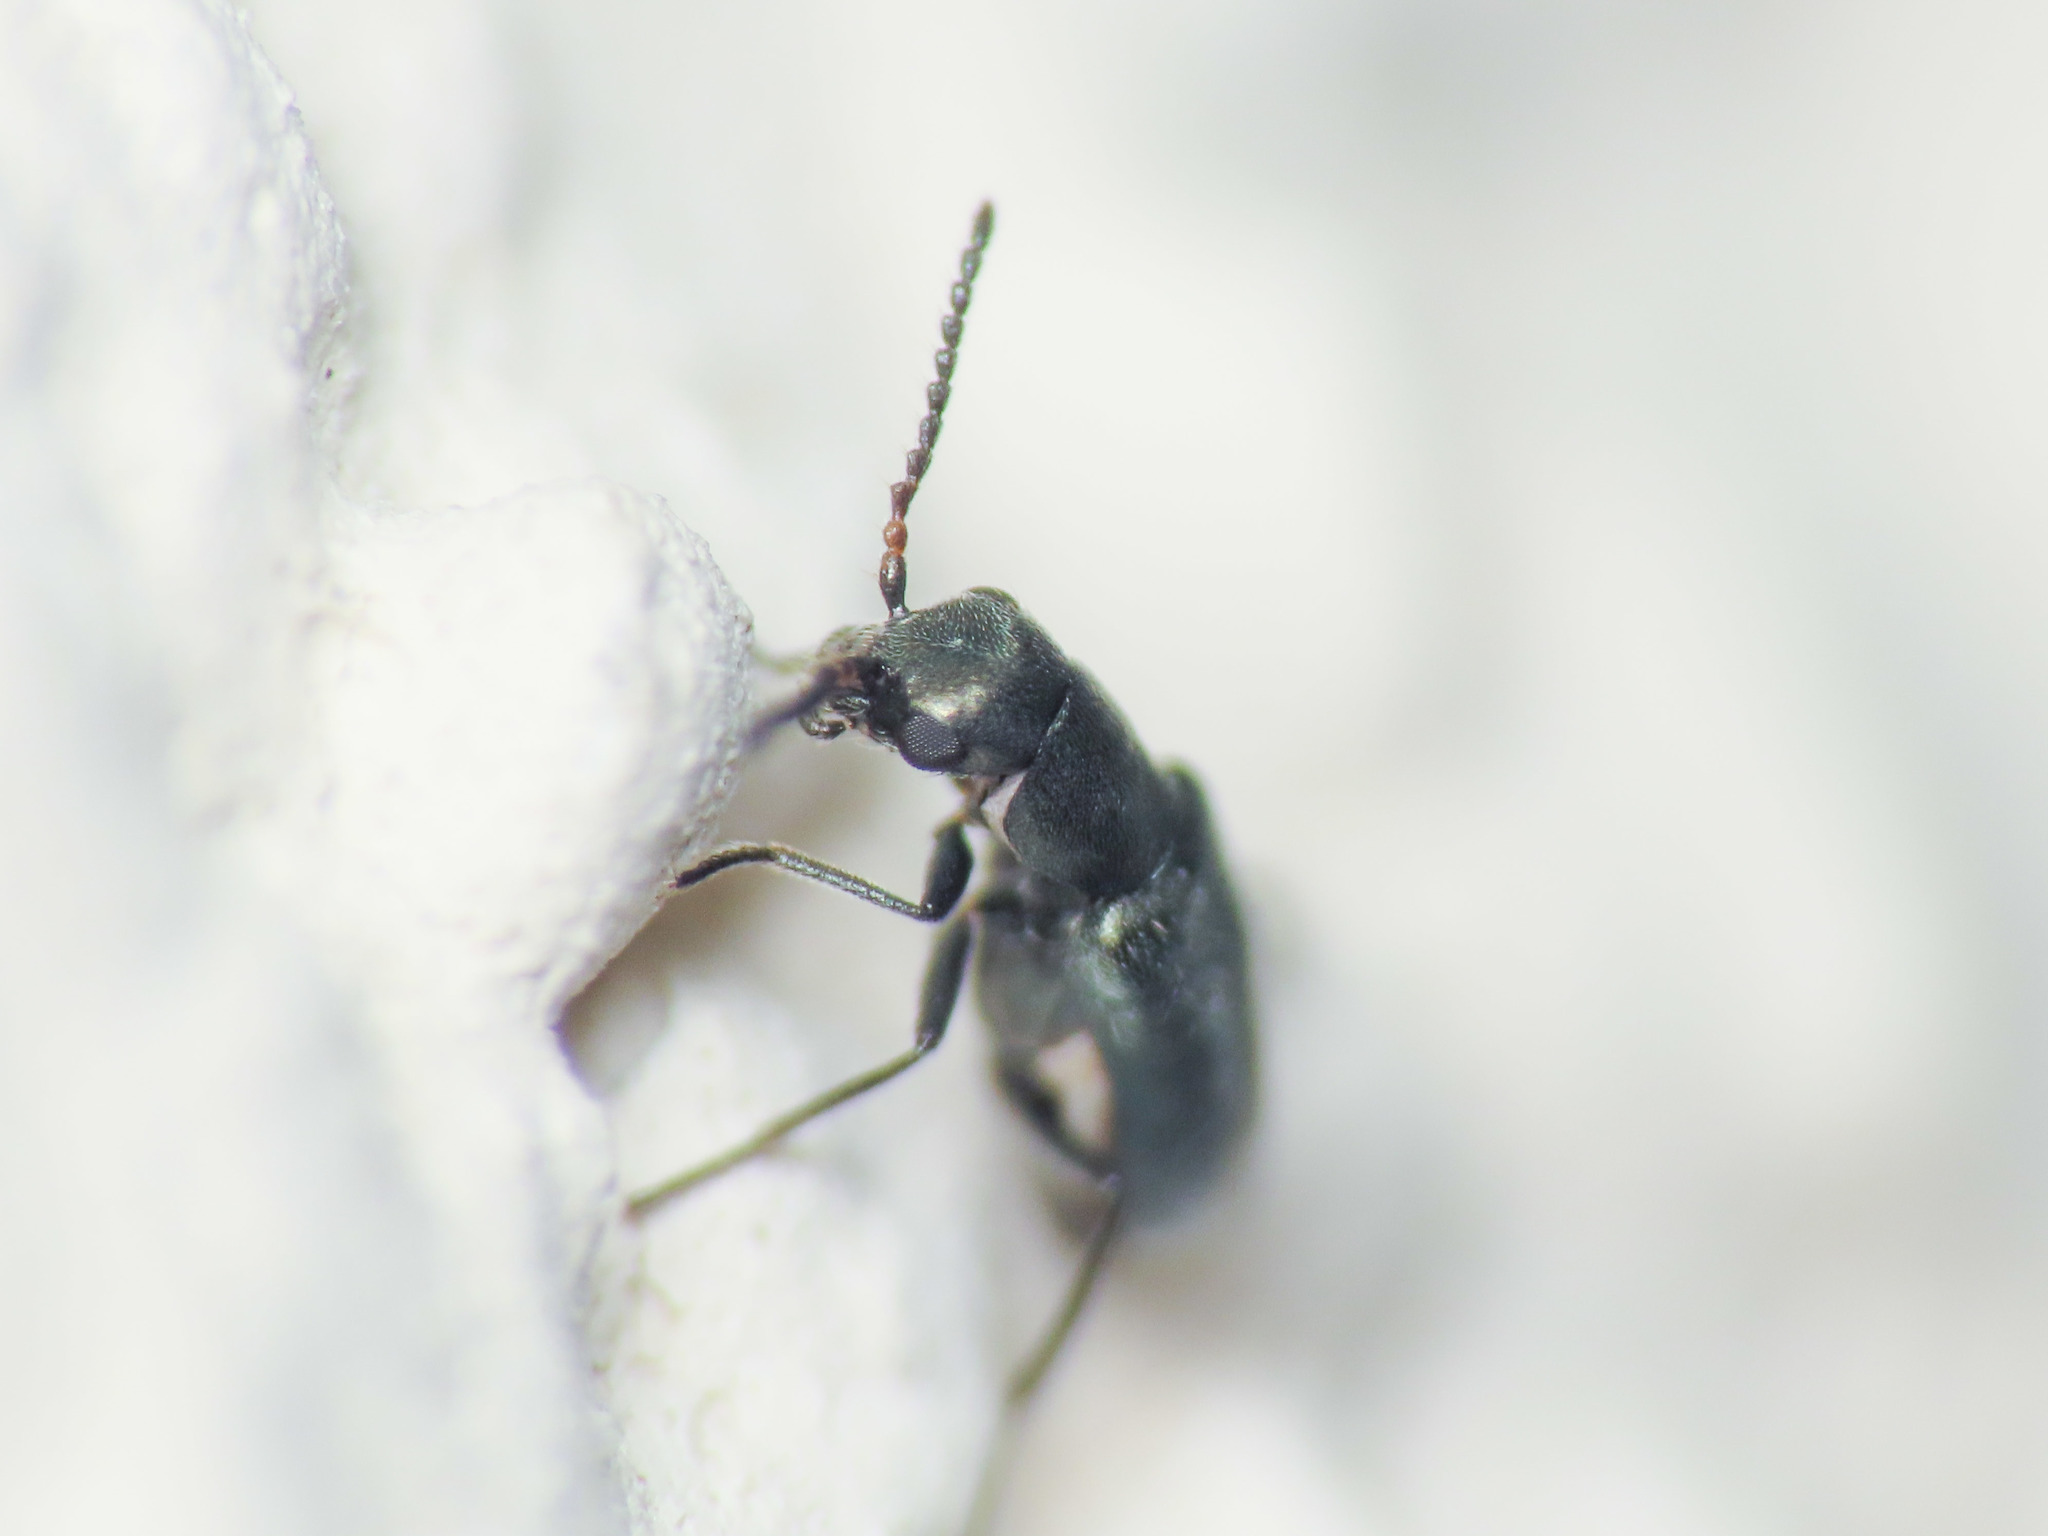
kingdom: Animalia
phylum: Arthropoda
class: Insecta
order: Coleoptera
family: Malachiidae
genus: Charopus
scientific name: Charopus docilis
